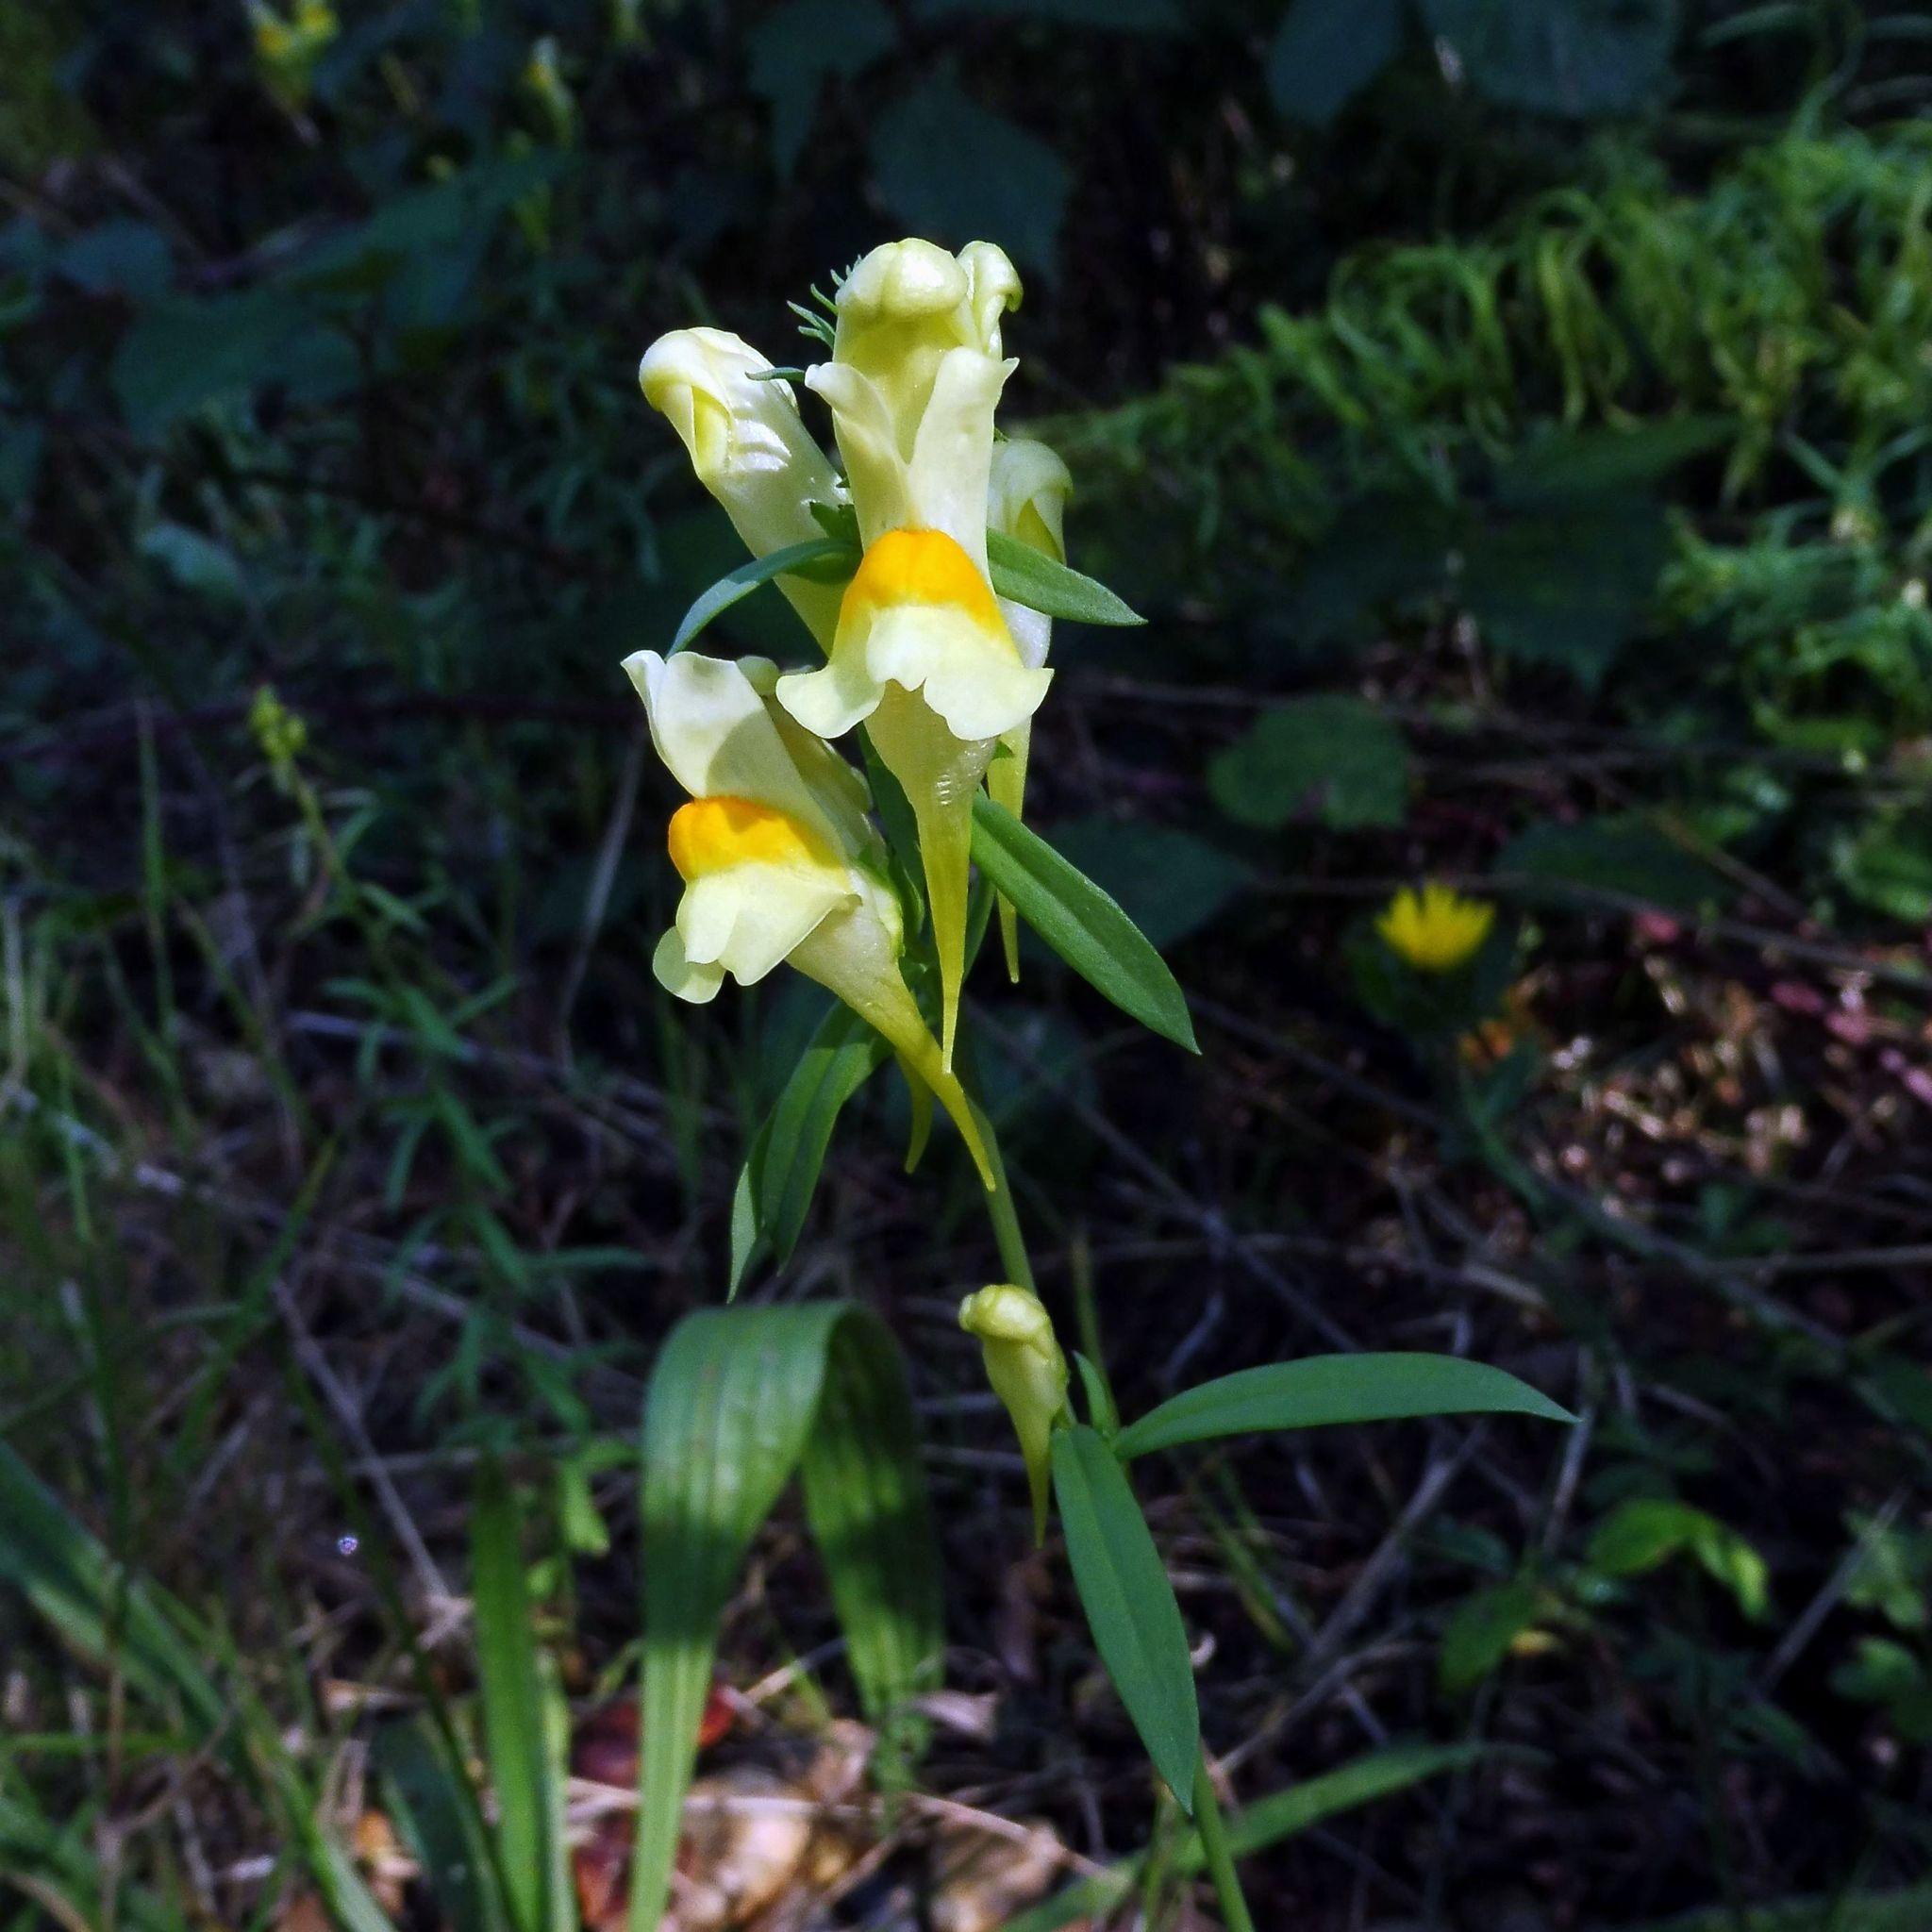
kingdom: Plantae
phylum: Tracheophyta
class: Magnoliopsida
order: Lamiales
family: Plantaginaceae
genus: Linaria
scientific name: Linaria vulgaris
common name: Butter and eggs
